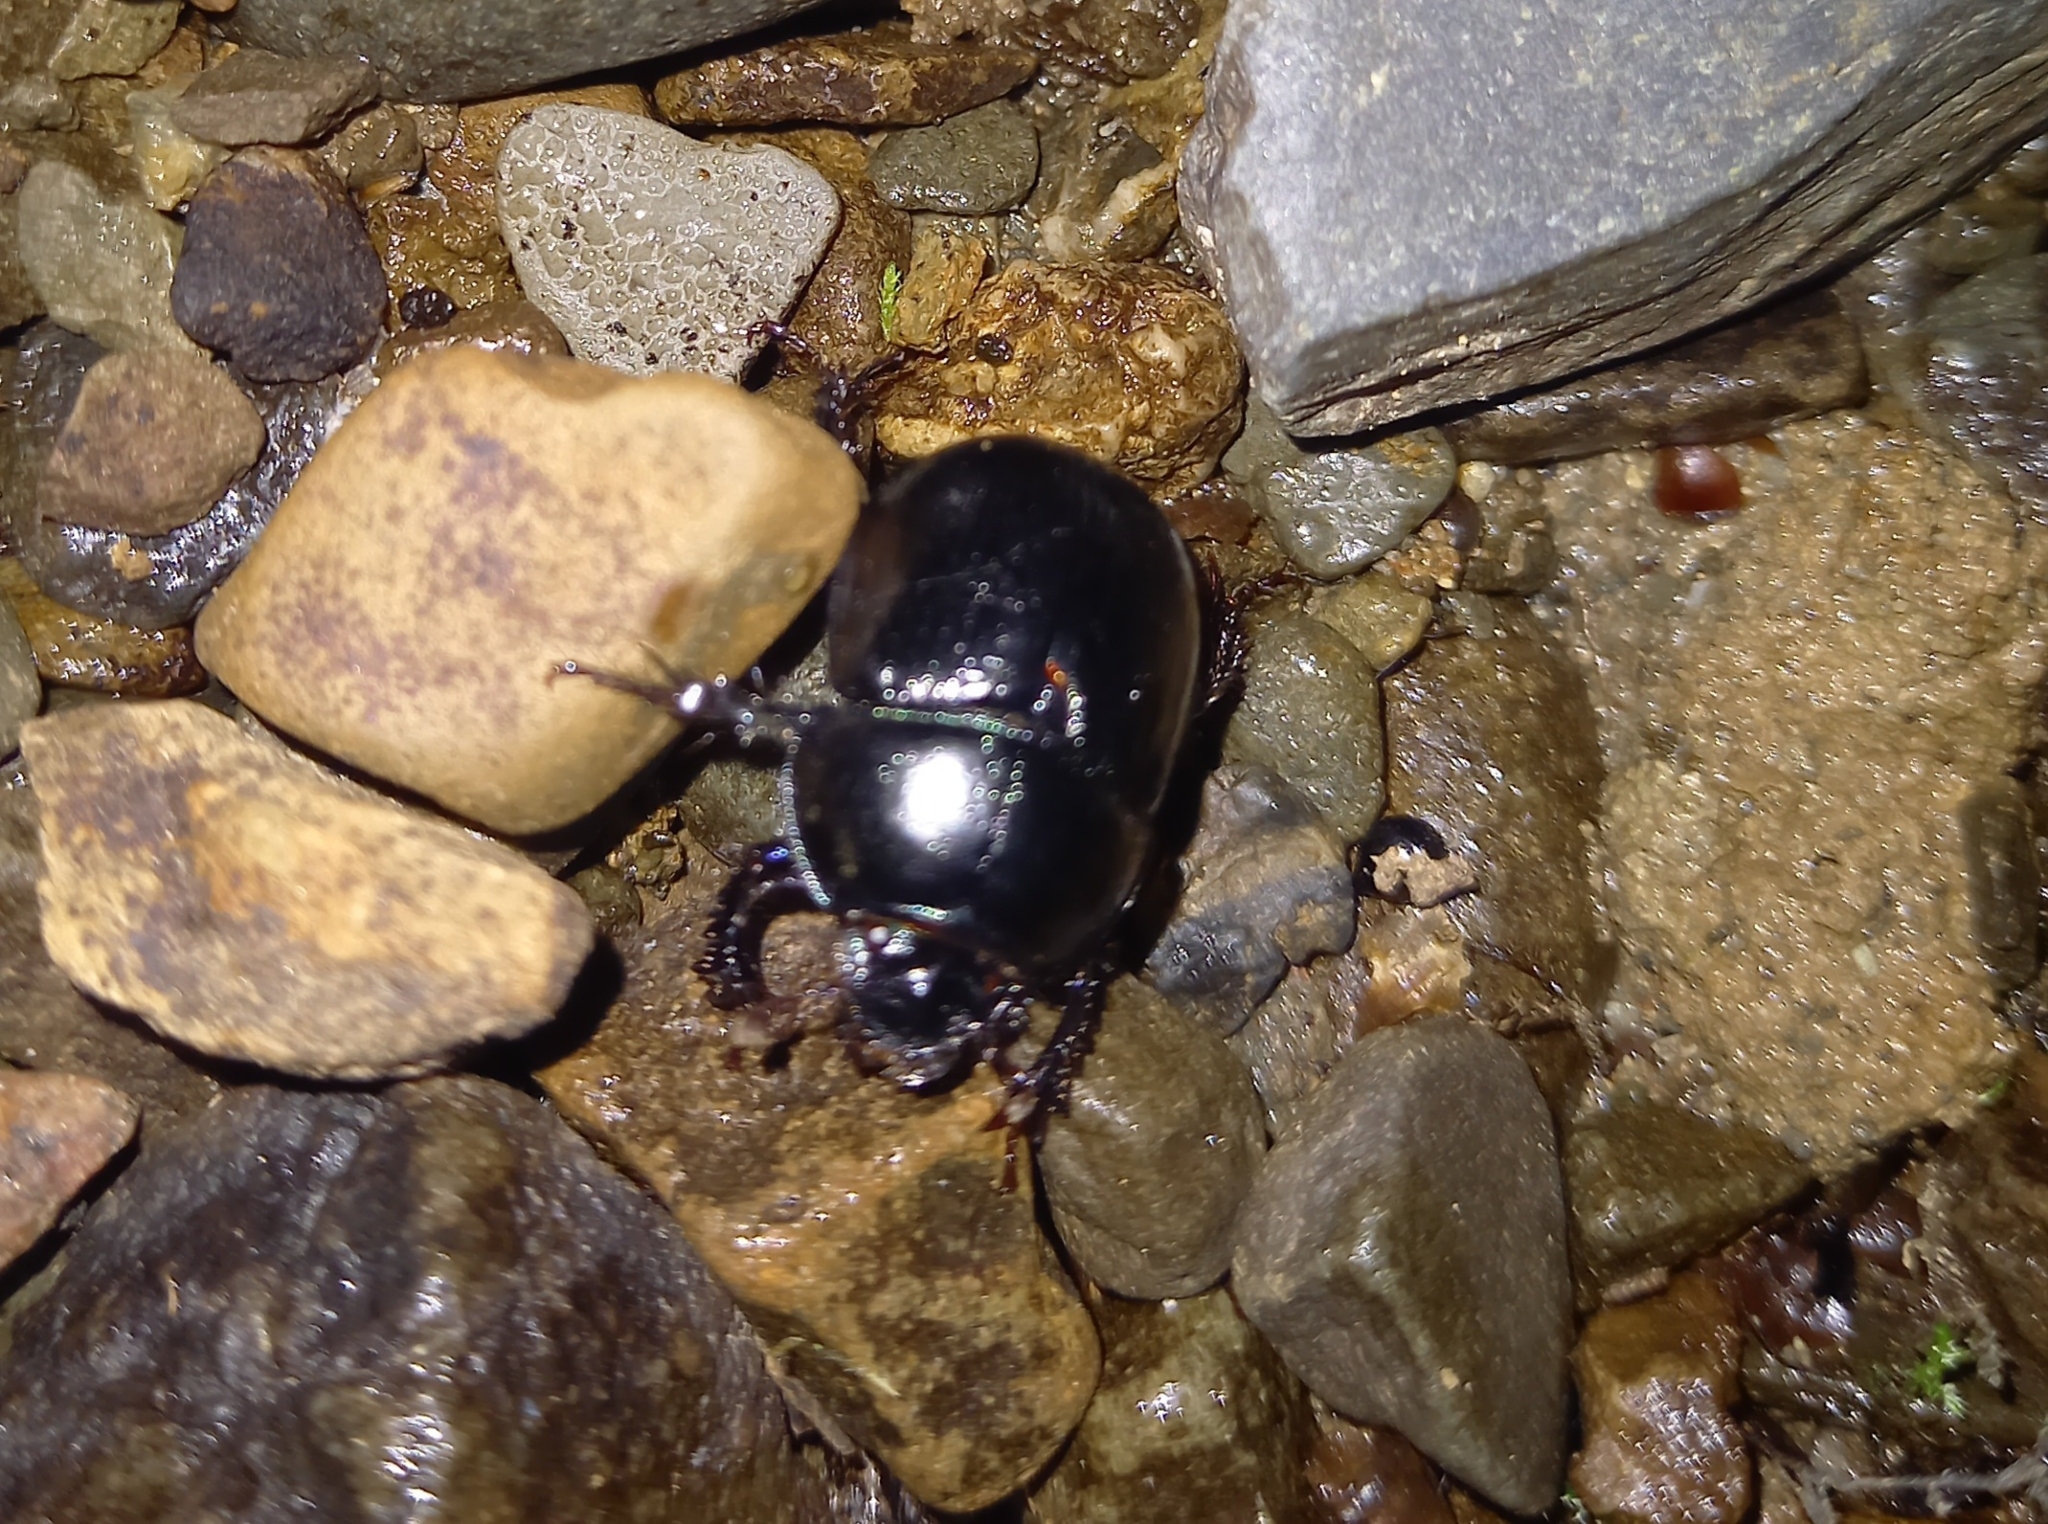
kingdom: Animalia
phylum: Arthropoda
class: Insecta
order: Coleoptera
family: Geotrupidae
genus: Anoplotrupes
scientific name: Anoplotrupes stercorosus
